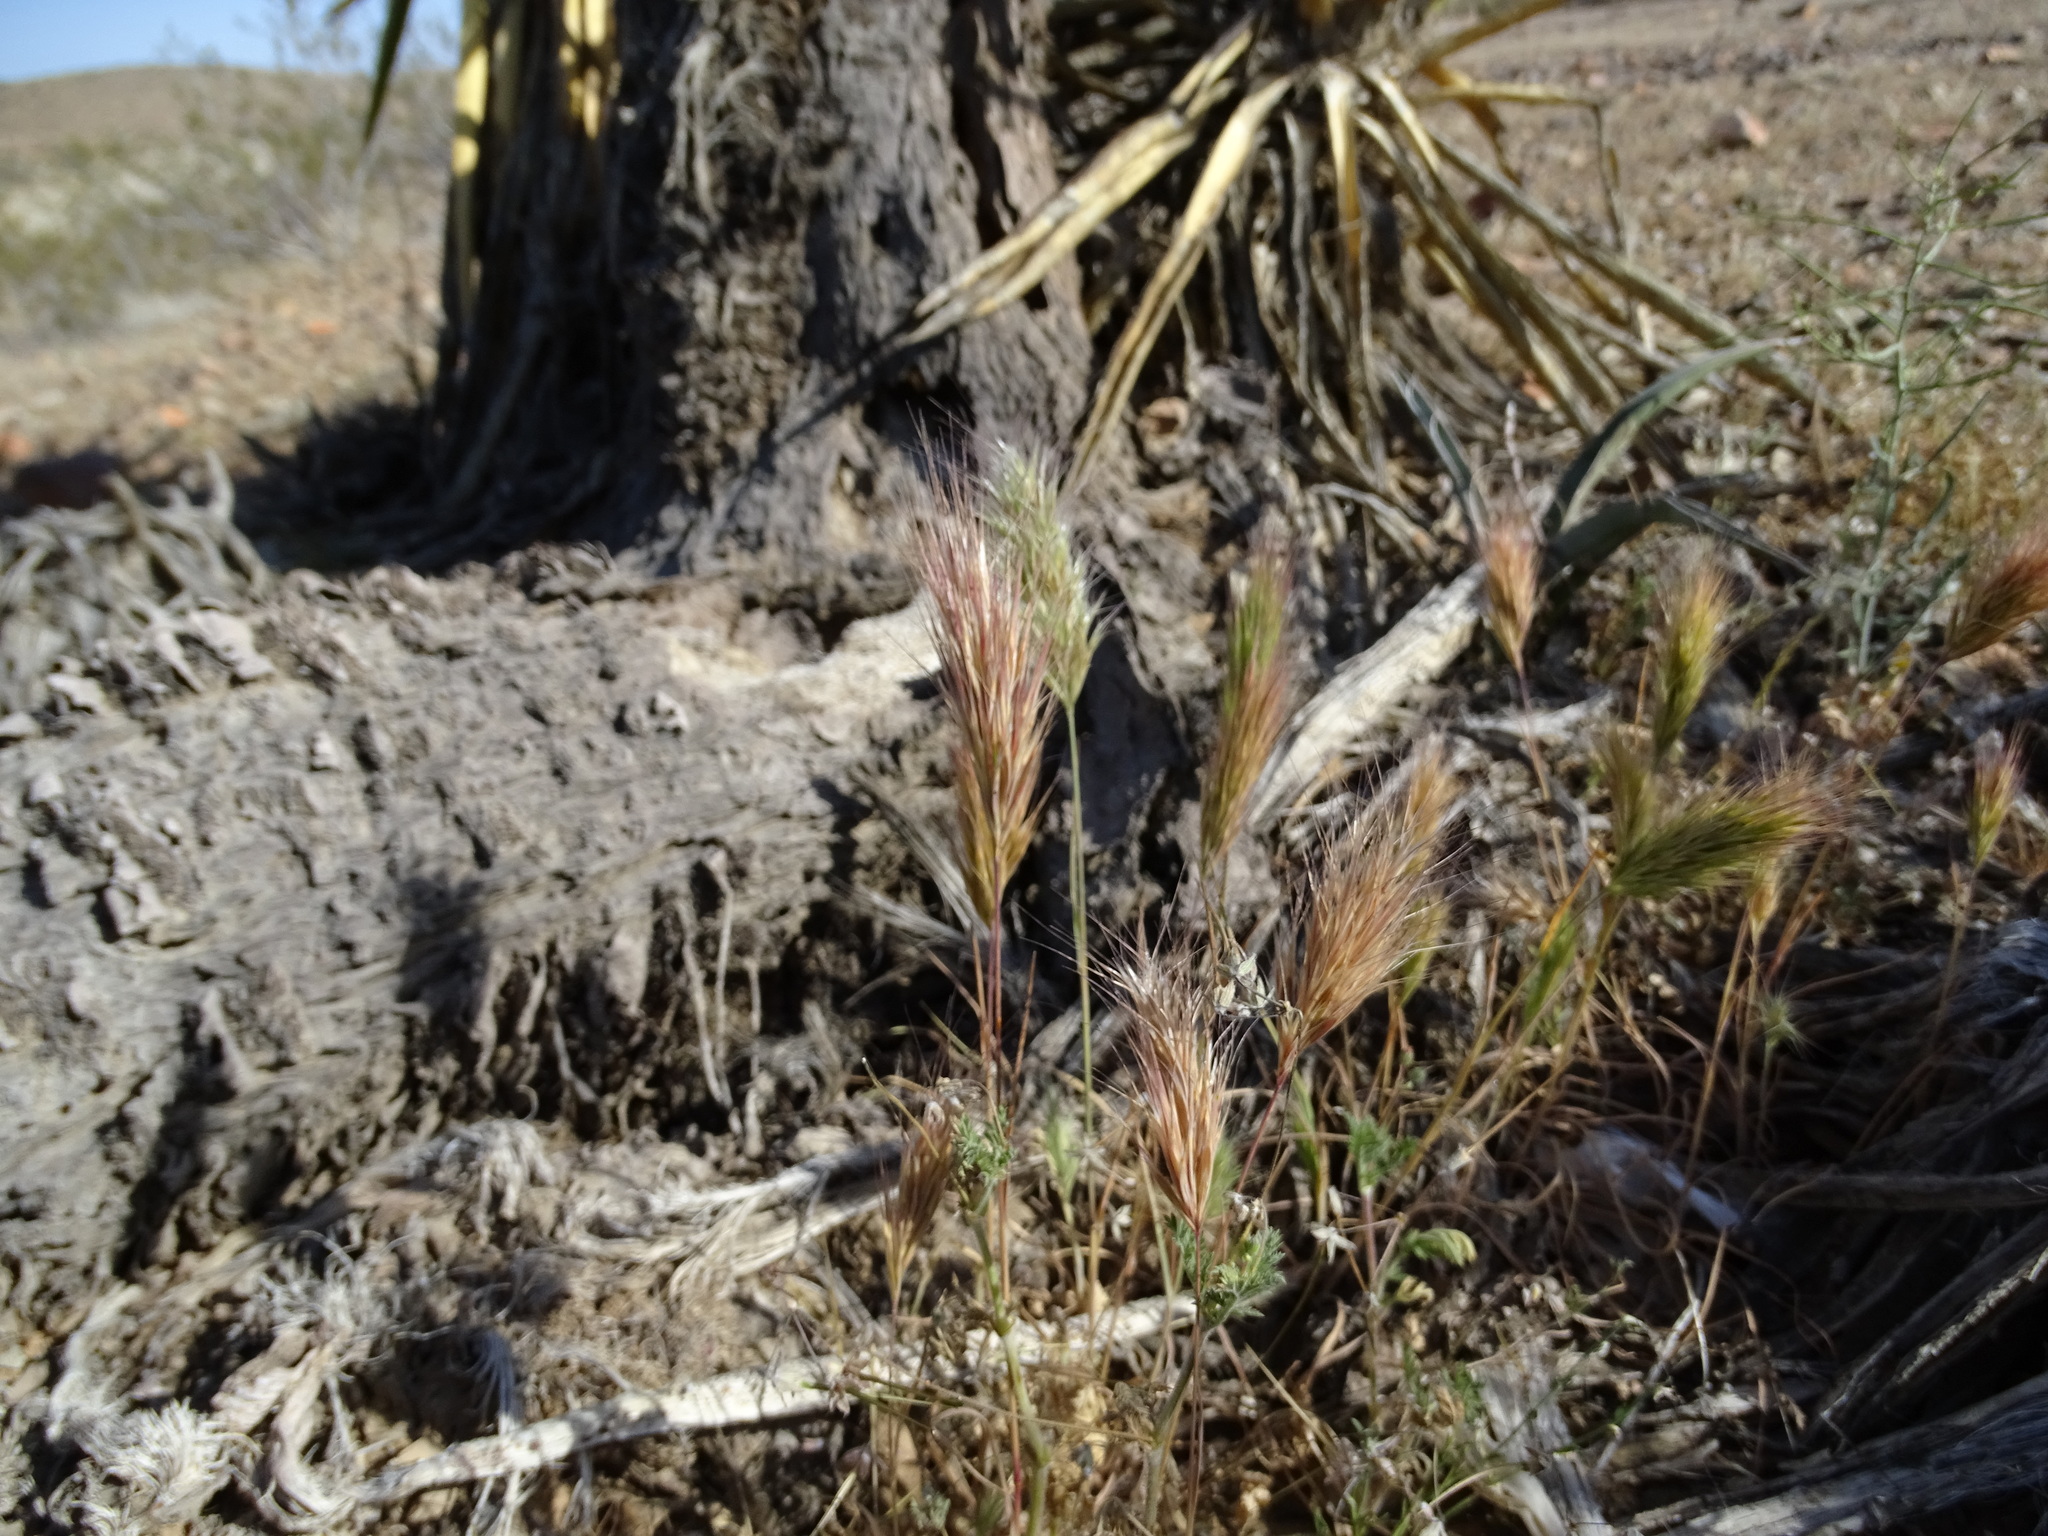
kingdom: Plantae
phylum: Tracheophyta
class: Liliopsida
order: Poales
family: Poaceae
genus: Bromus
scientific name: Bromus madritensis
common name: Compact brome
